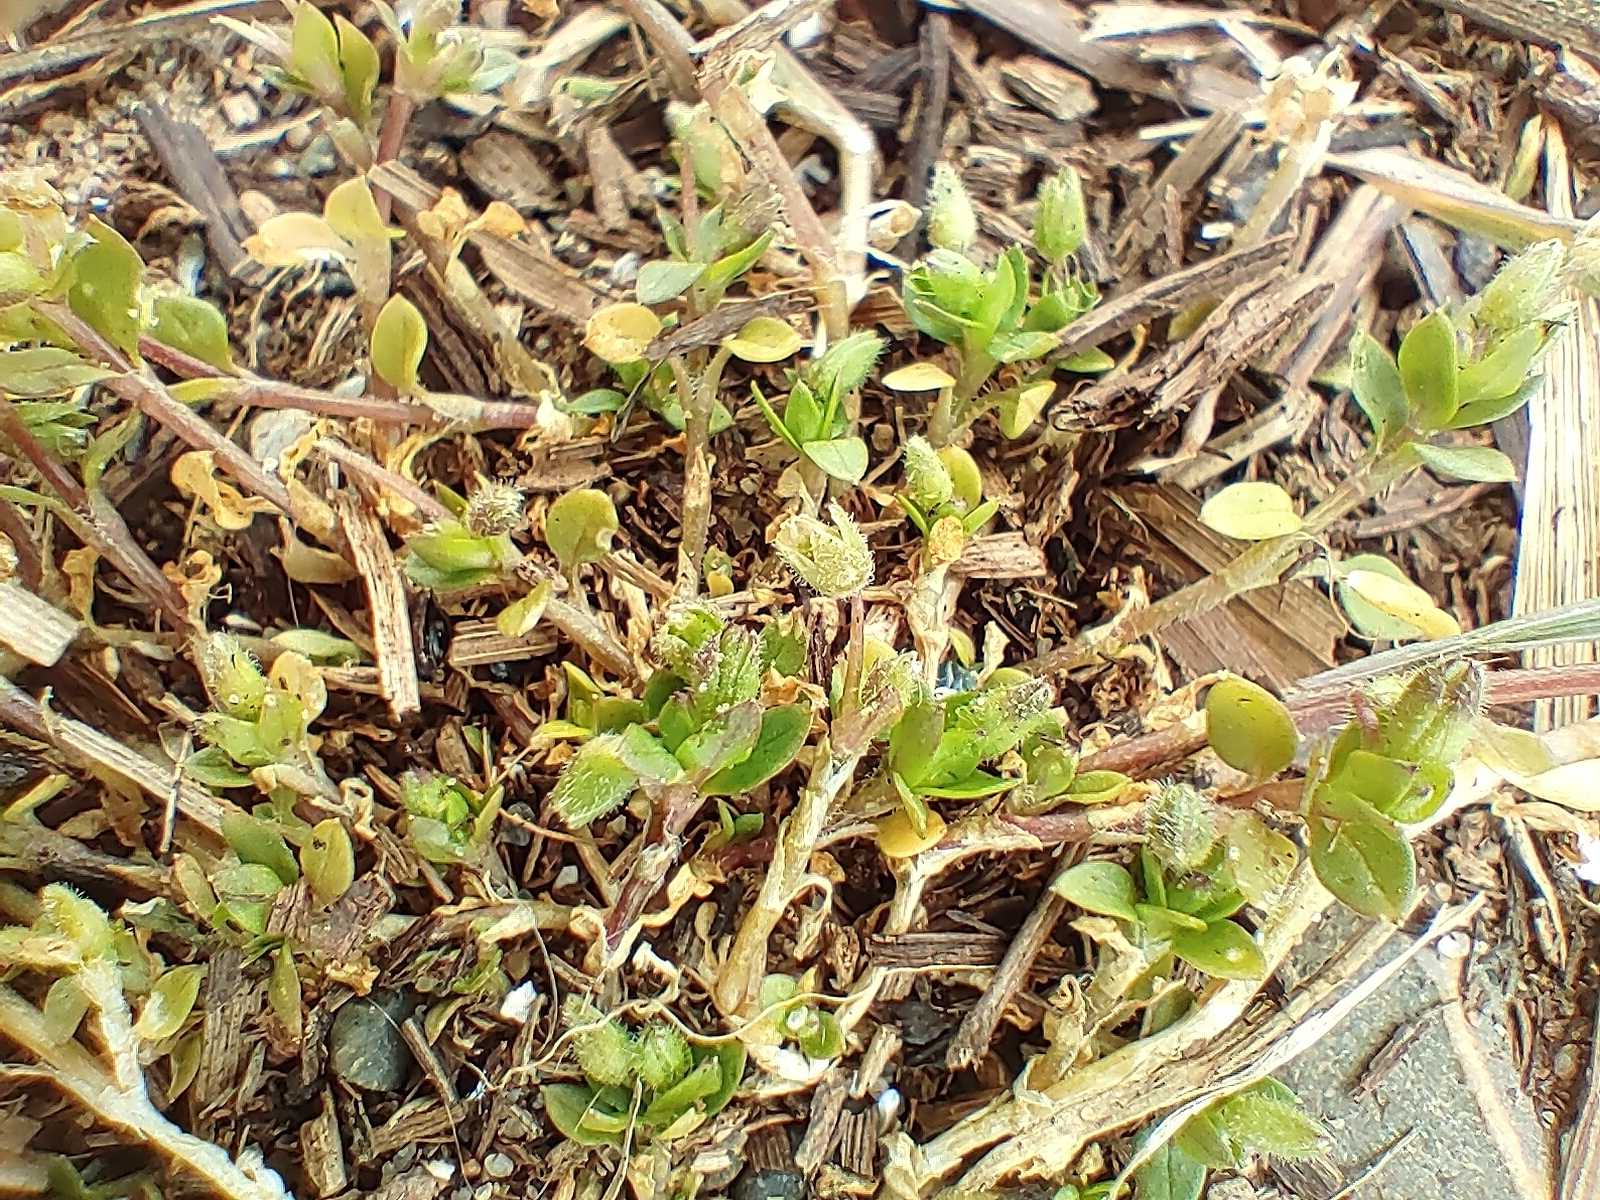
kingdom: Plantae
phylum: Tracheophyta
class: Magnoliopsida
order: Caryophyllales
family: Caryophyllaceae
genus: Stellaria
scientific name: Stellaria apetala
